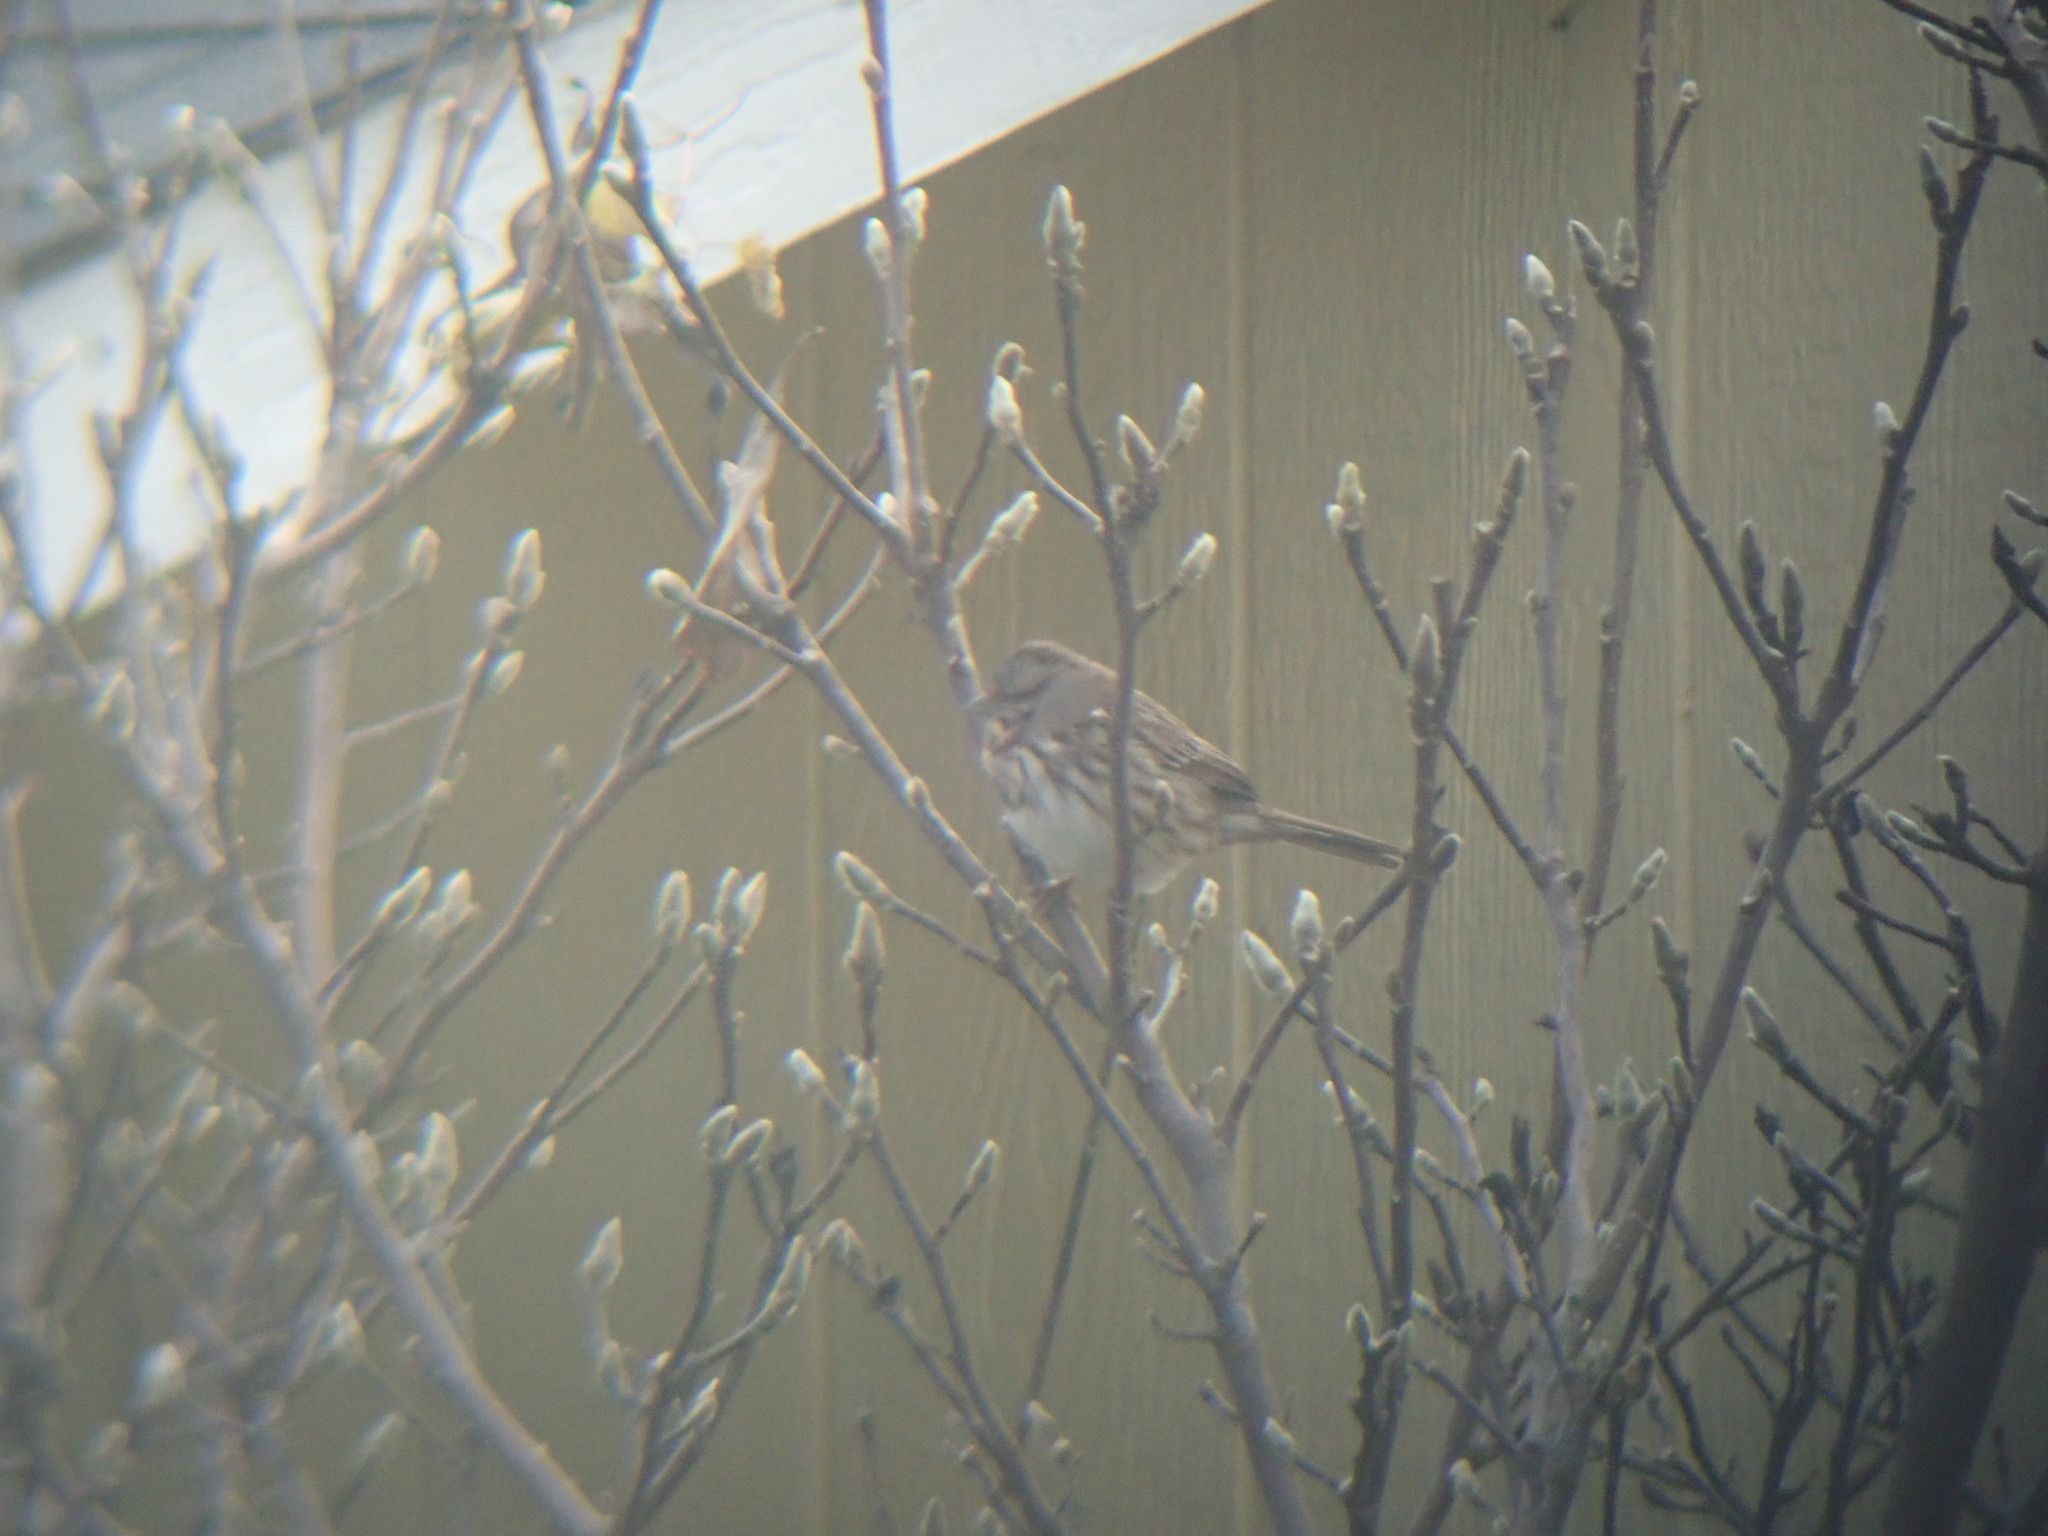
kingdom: Animalia
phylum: Chordata
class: Aves
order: Passeriformes
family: Passerellidae
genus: Melospiza
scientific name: Melospiza melodia
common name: Song sparrow
